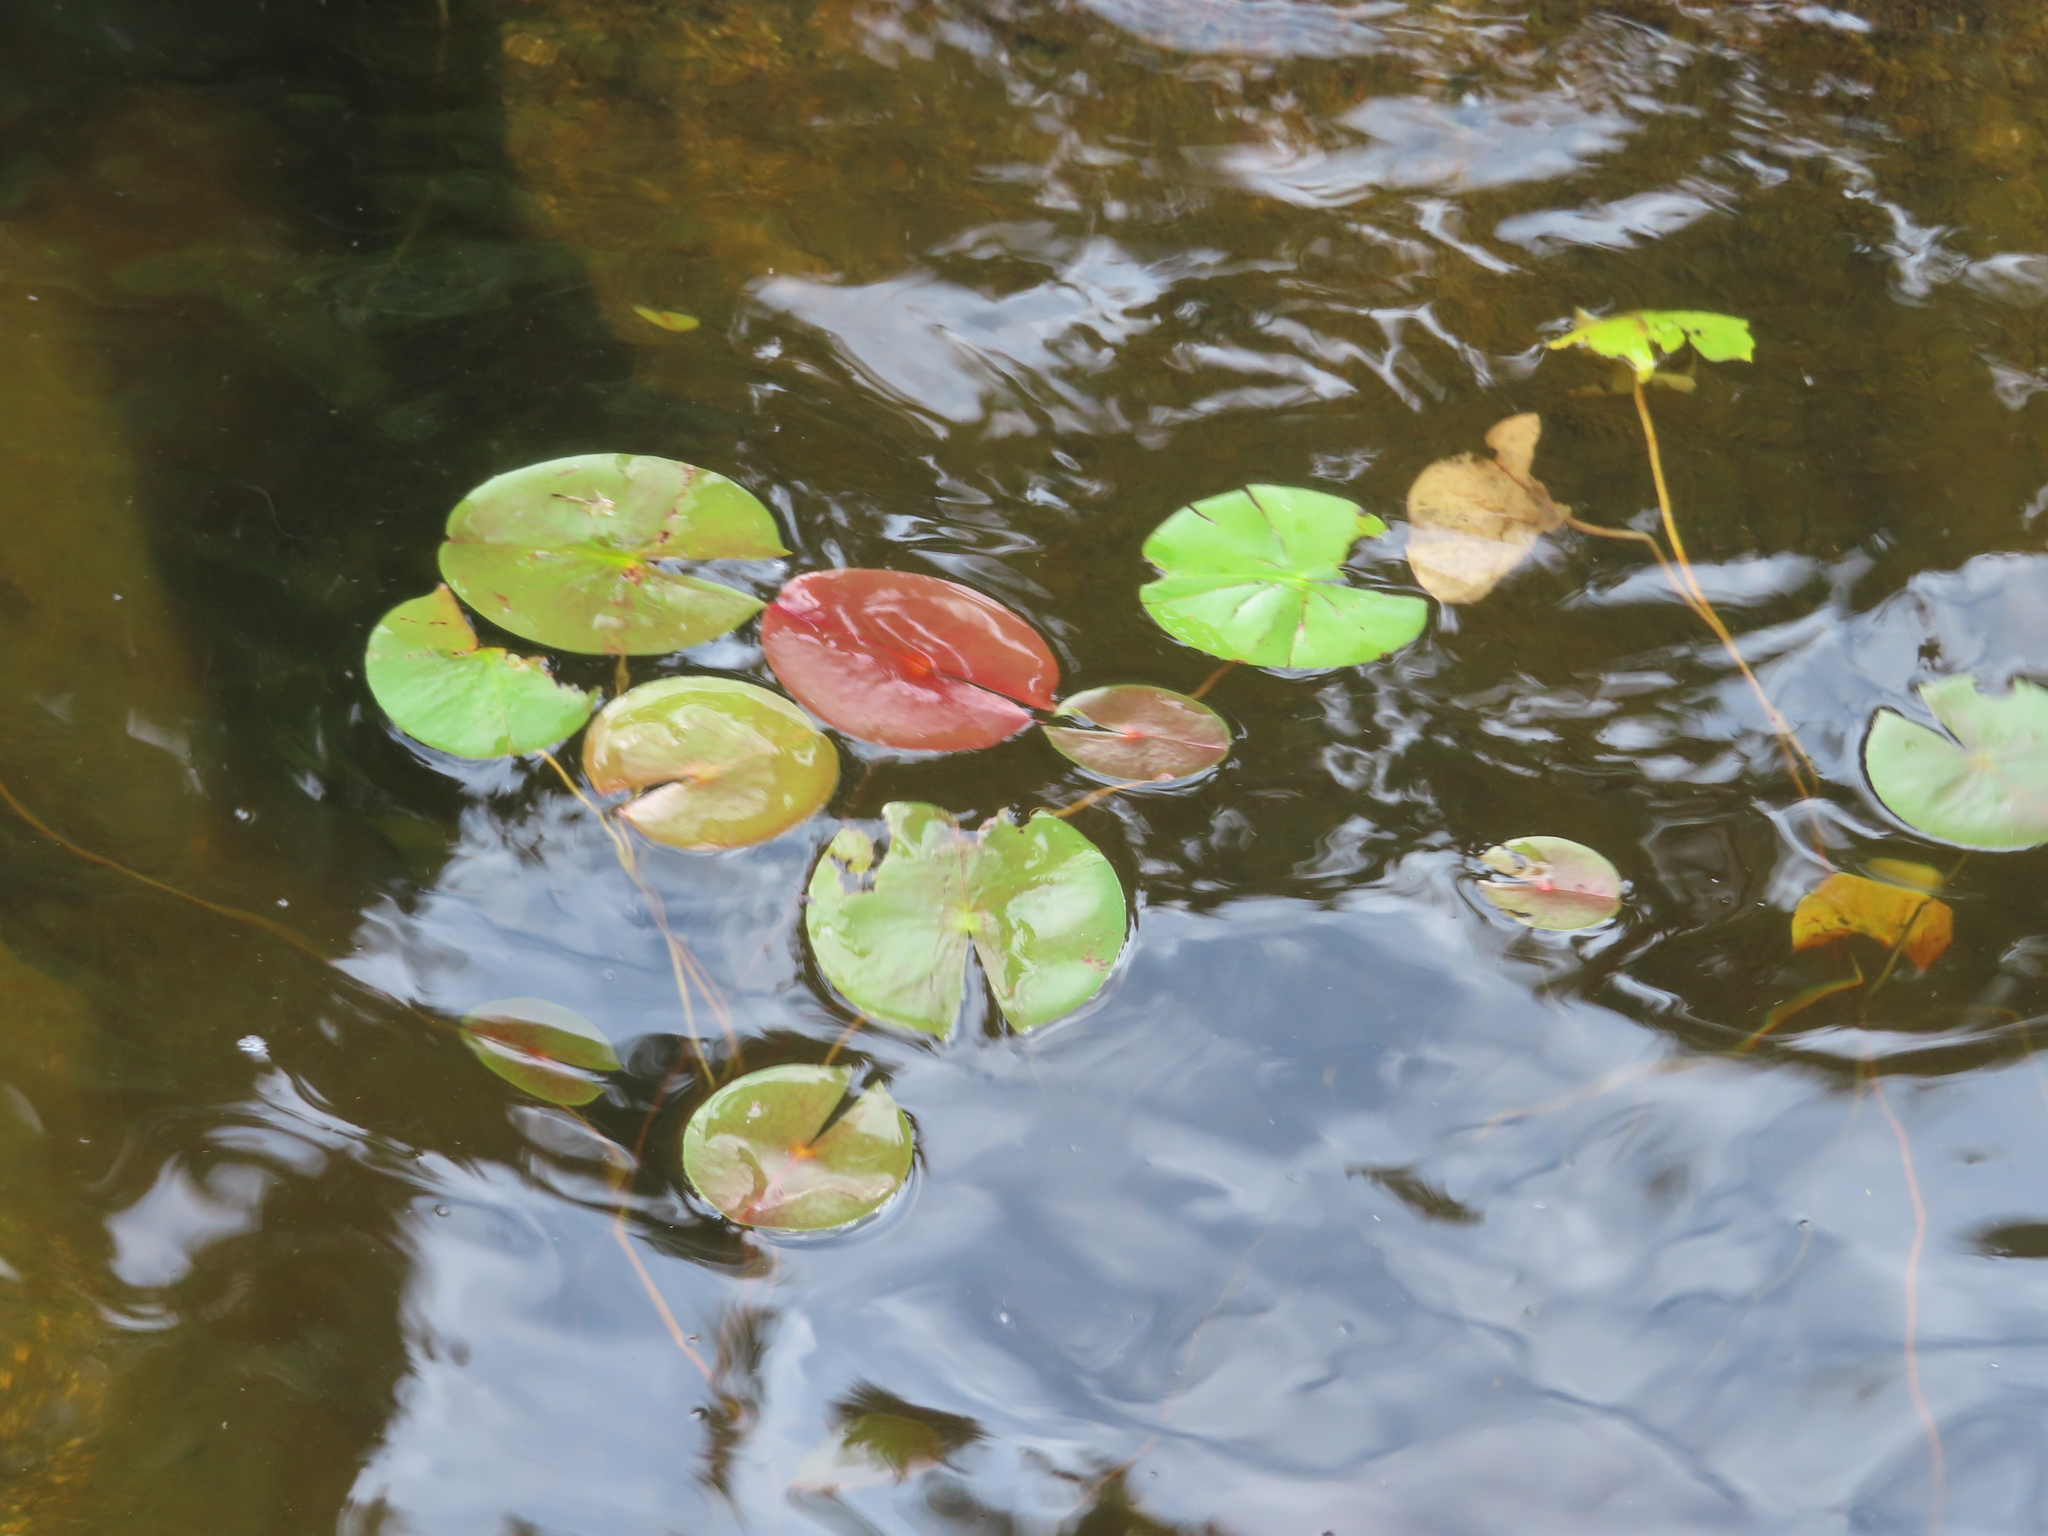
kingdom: Plantae
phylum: Tracheophyta
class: Magnoliopsida
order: Nymphaeales
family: Nymphaeaceae
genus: Nymphaea
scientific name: Nymphaea odorata
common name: Fragrant water-lily
